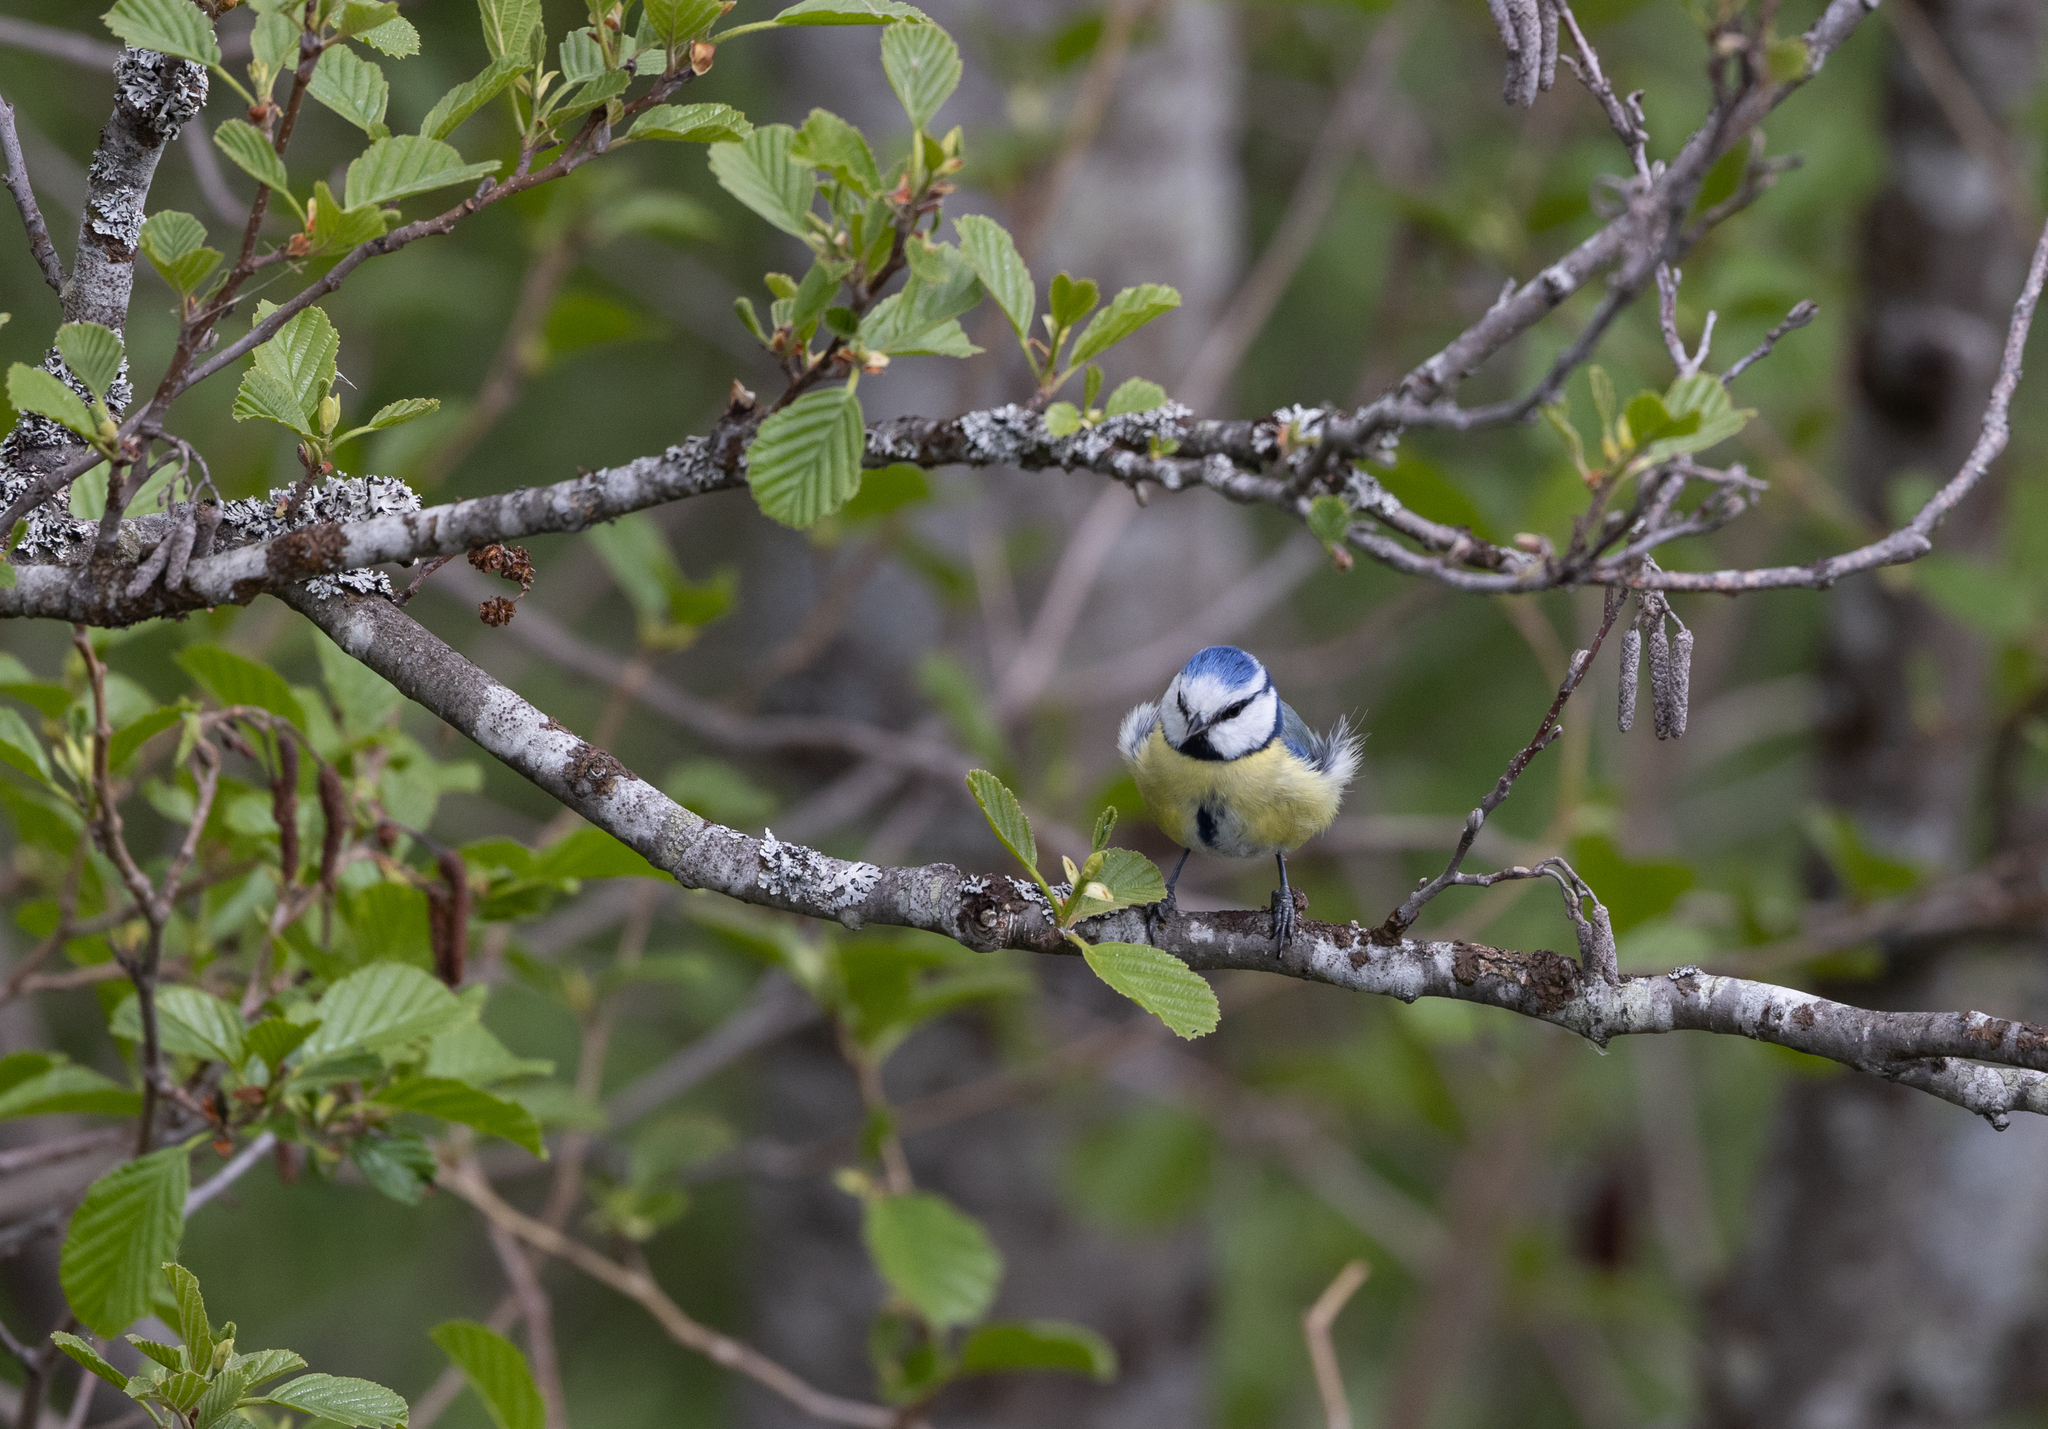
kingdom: Animalia
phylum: Chordata
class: Aves
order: Passeriformes
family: Paridae
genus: Cyanistes
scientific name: Cyanistes caeruleus
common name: Eurasian blue tit
